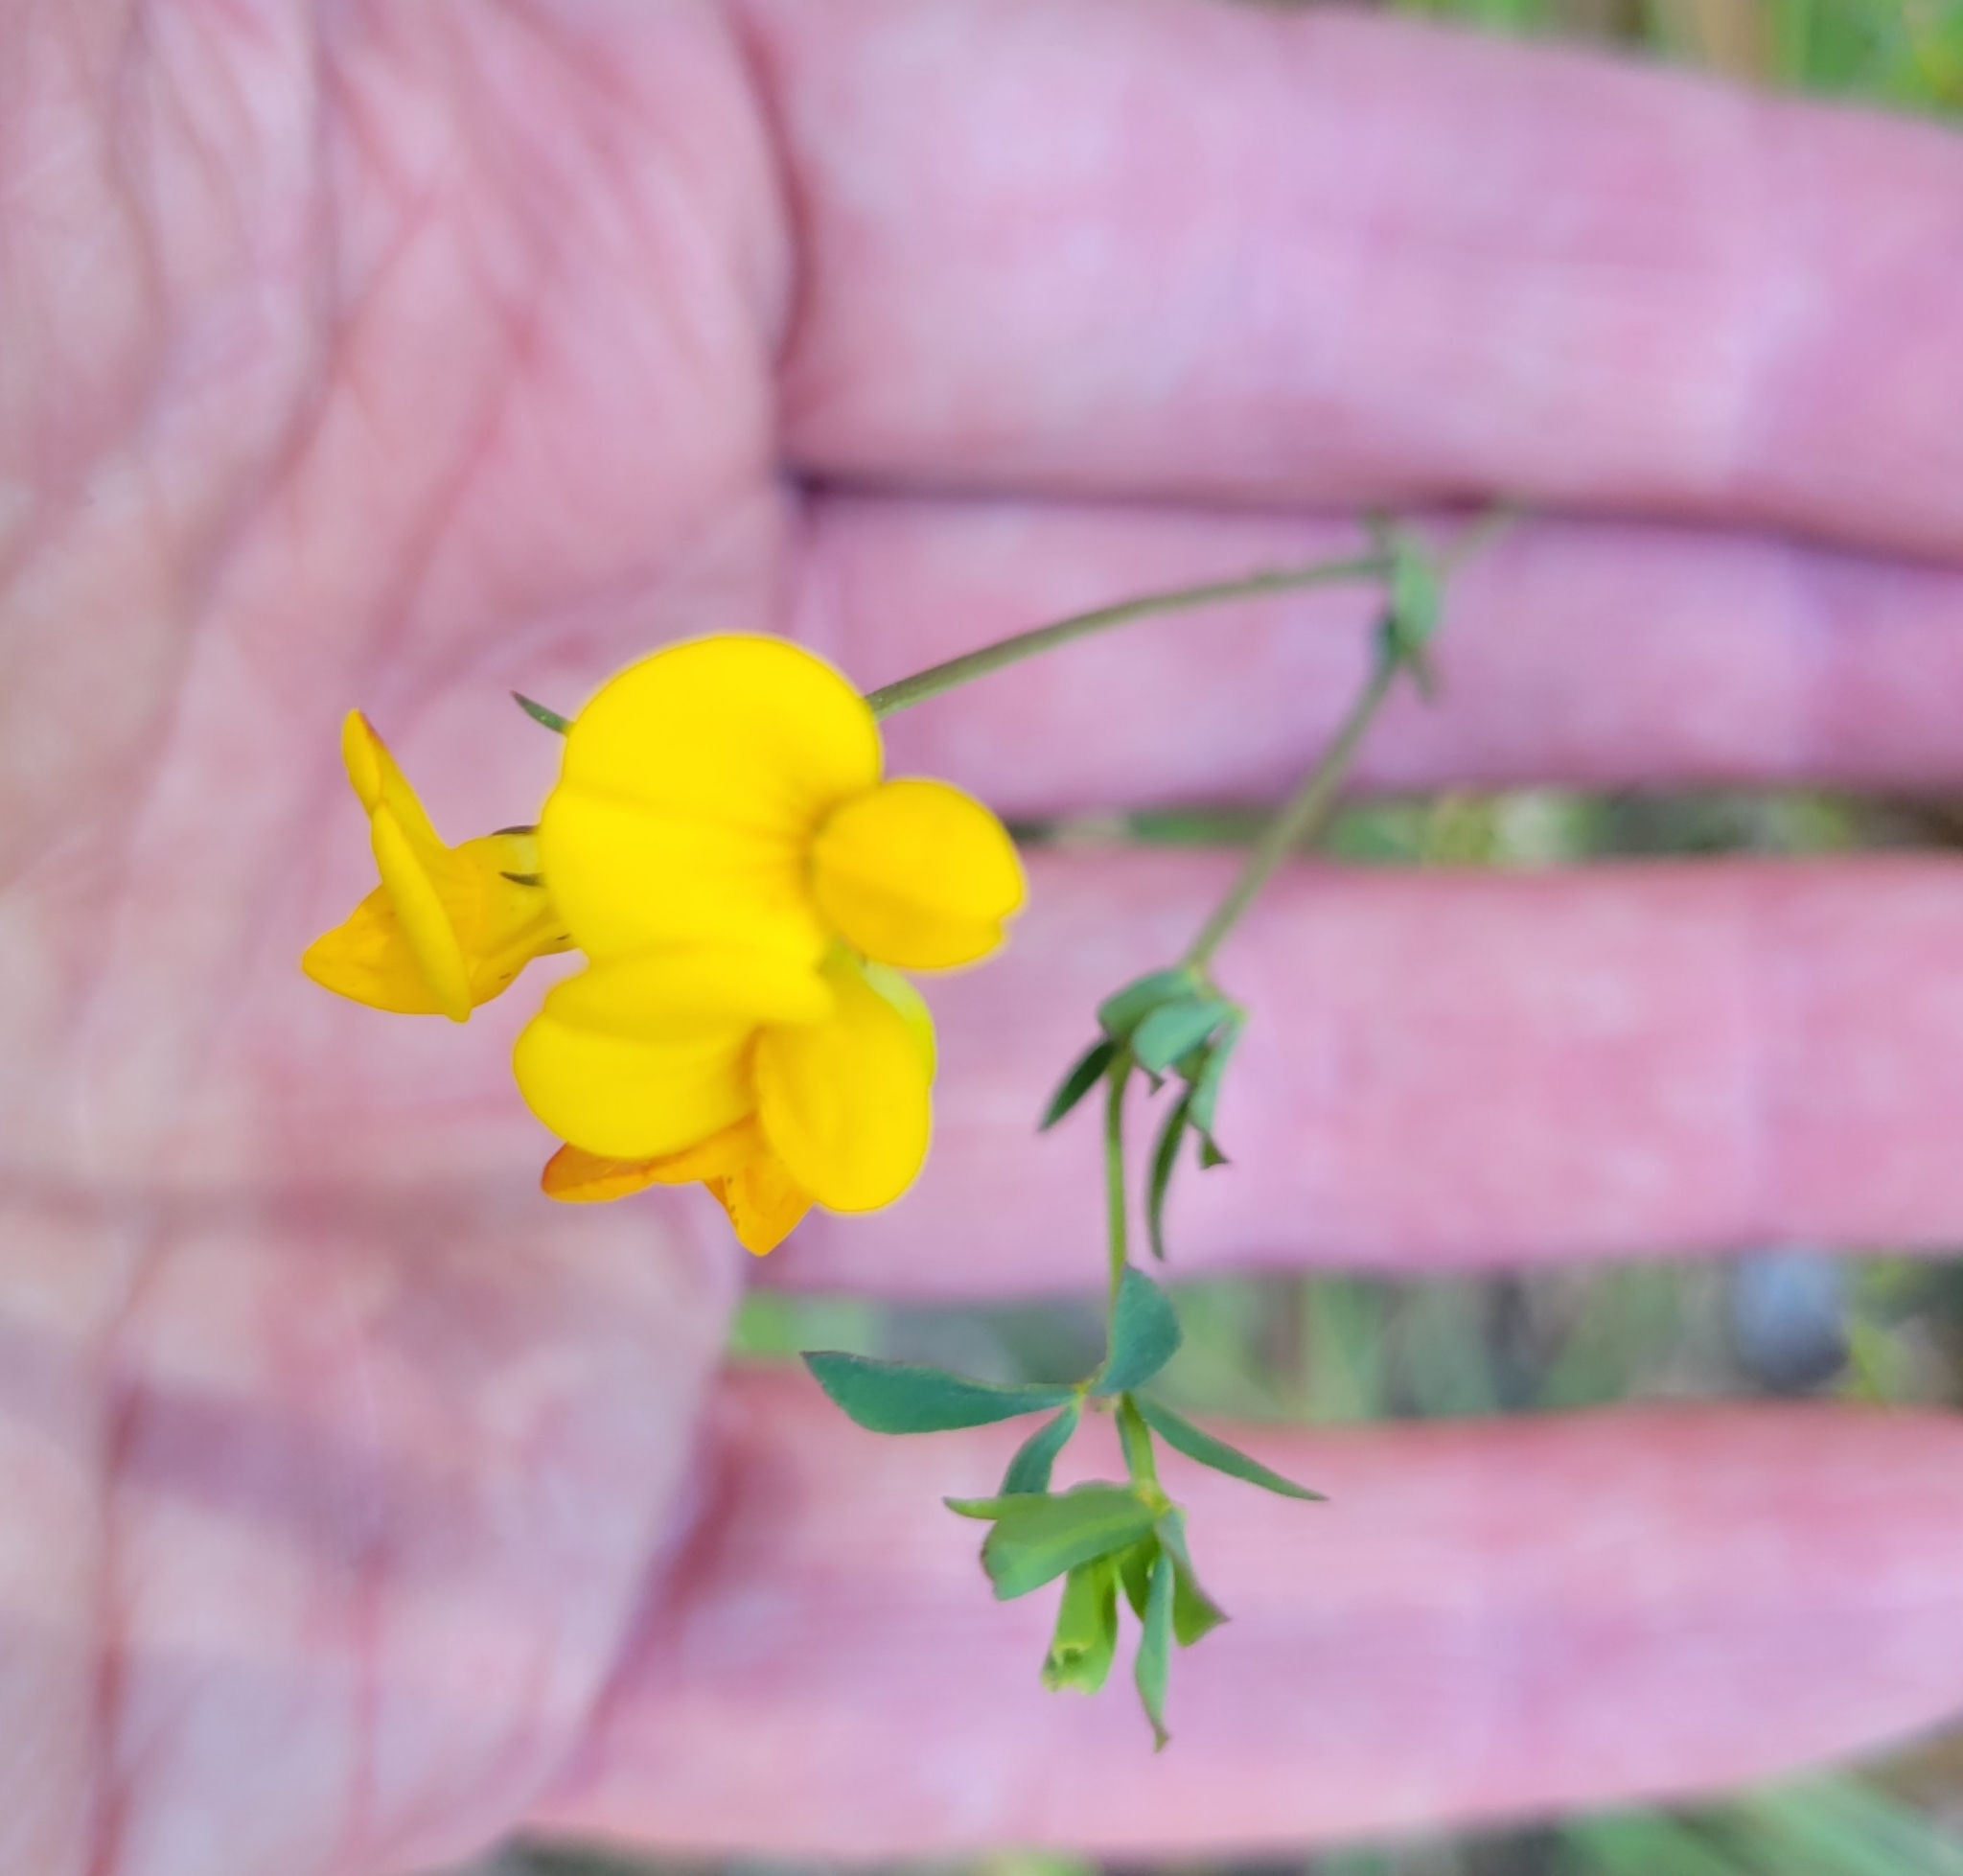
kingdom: Plantae
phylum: Tracheophyta
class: Magnoliopsida
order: Fabales
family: Fabaceae
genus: Lotus
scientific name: Lotus corniculatus
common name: Common bird's-foot-trefoil
